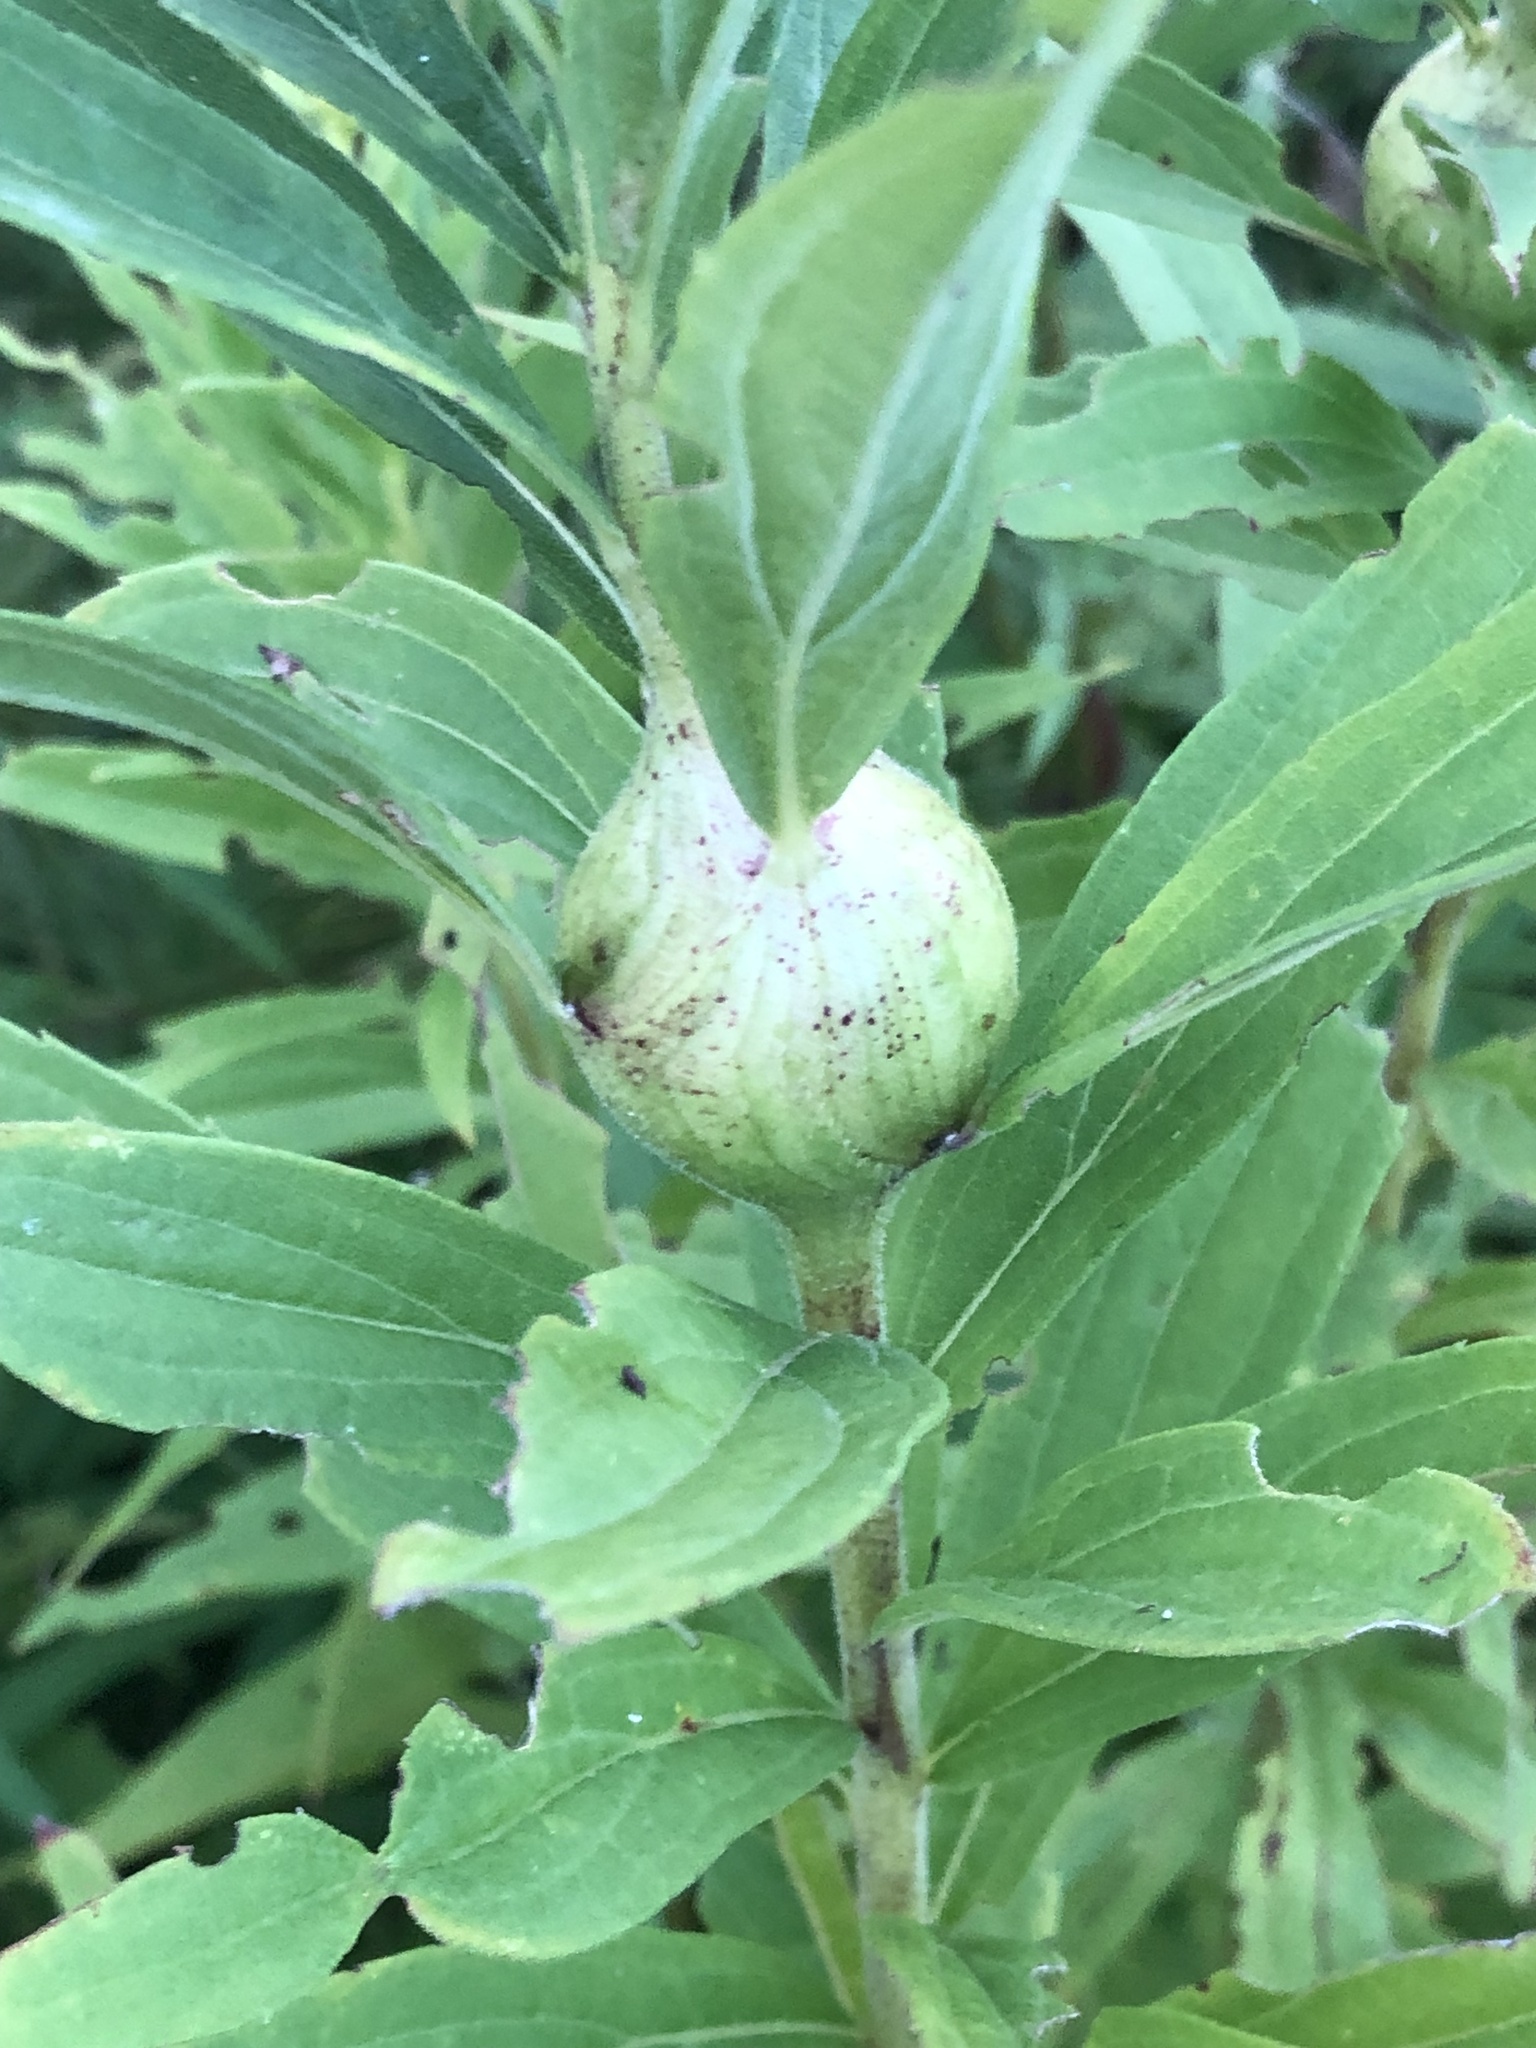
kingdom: Animalia
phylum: Arthropoda
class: Insecta
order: Diptera
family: Tephritidae
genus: Eurosta
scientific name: Eurosta solidaginis
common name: Goldenrod gall fly
